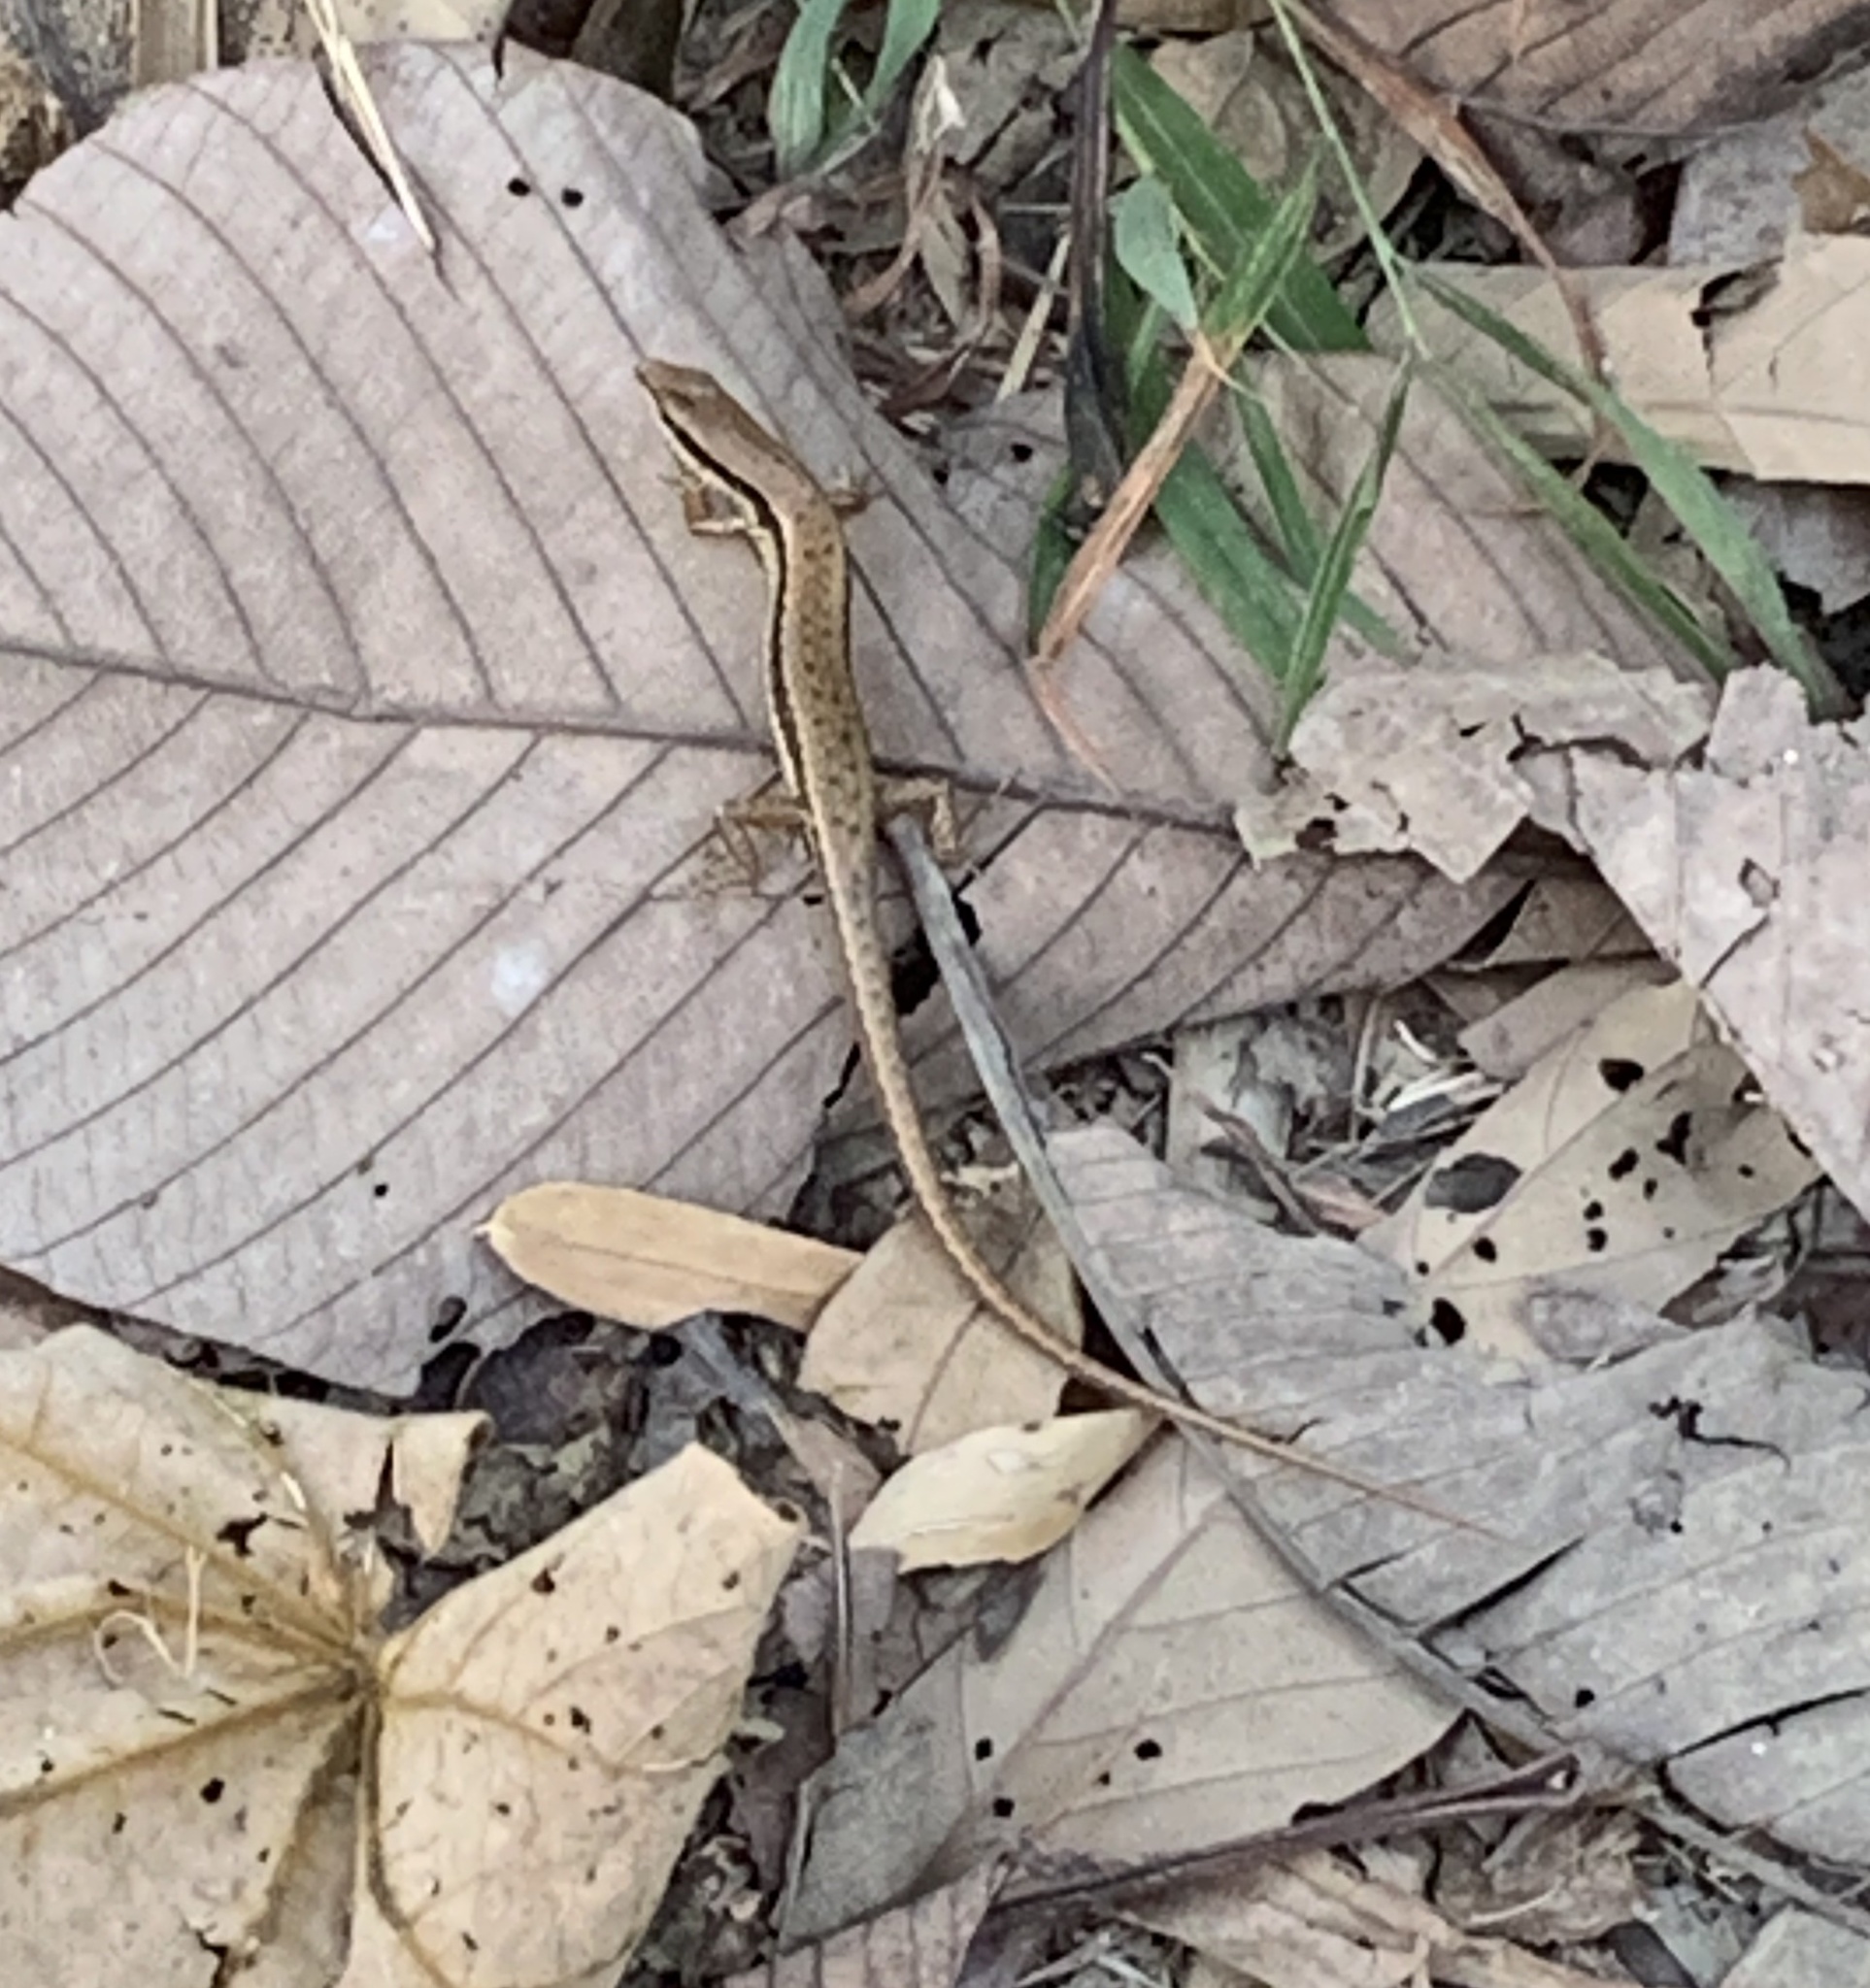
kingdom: Animalia
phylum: Chordata
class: Squamata
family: Scincidae
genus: Sphenomorphus
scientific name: Sphenomorphus maculatus
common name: Maculated forest skink
